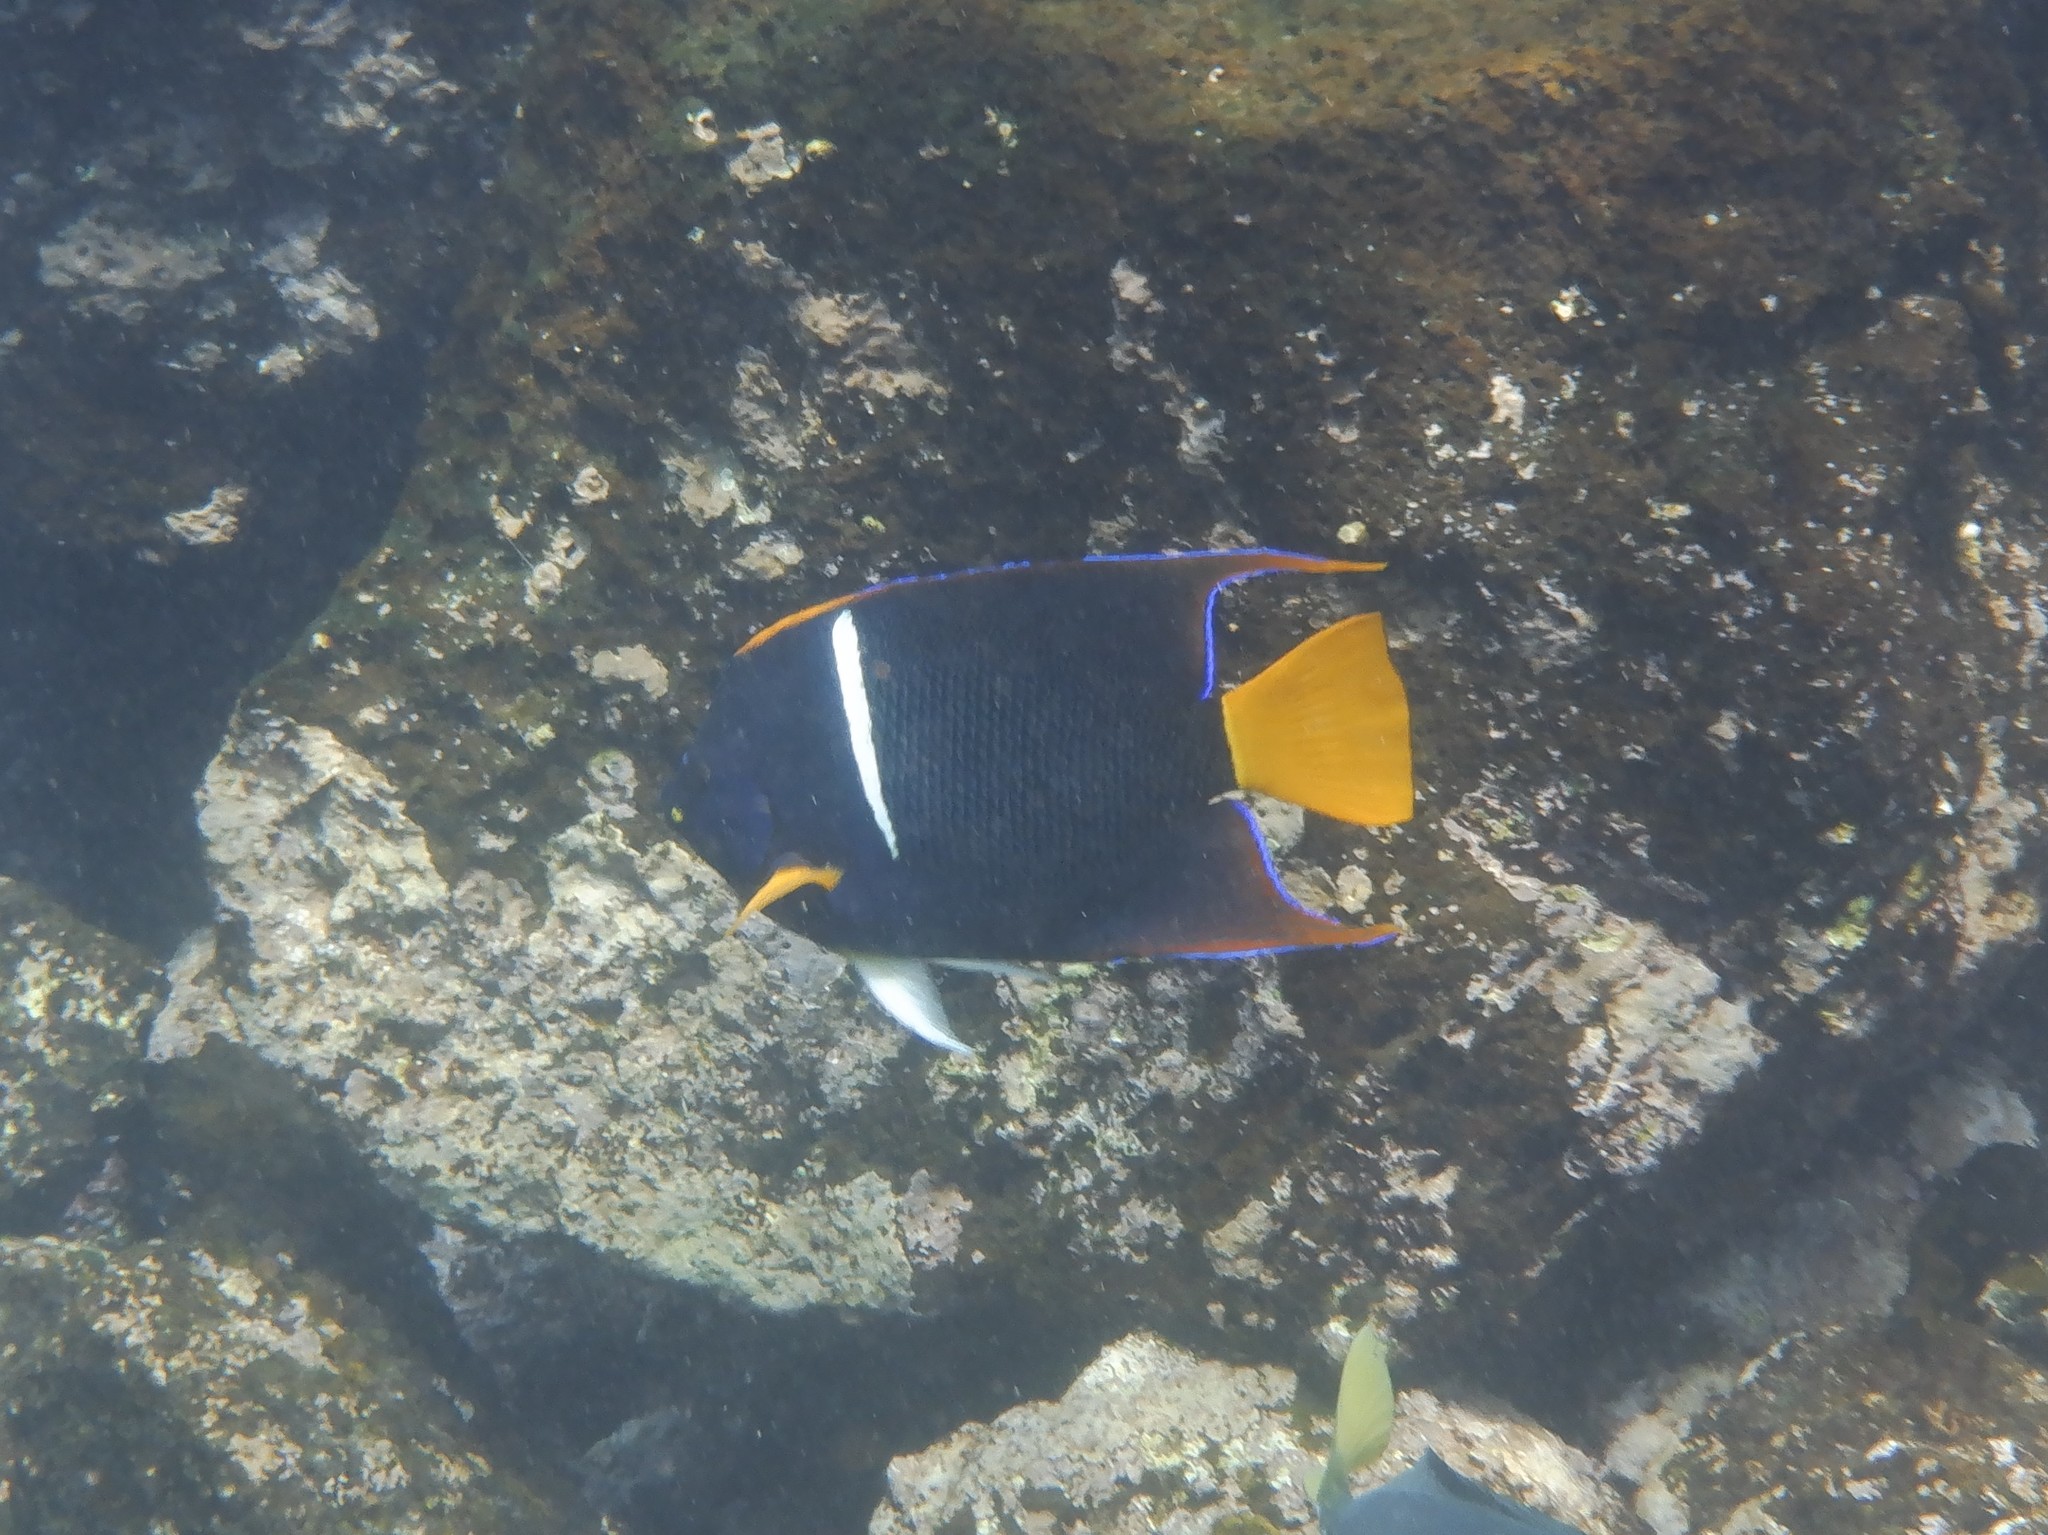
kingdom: Animalia
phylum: Chordata
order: Perciformes
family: Pomacanthidae
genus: Holacanthus
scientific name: Holacanthus passer
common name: King angelfish
